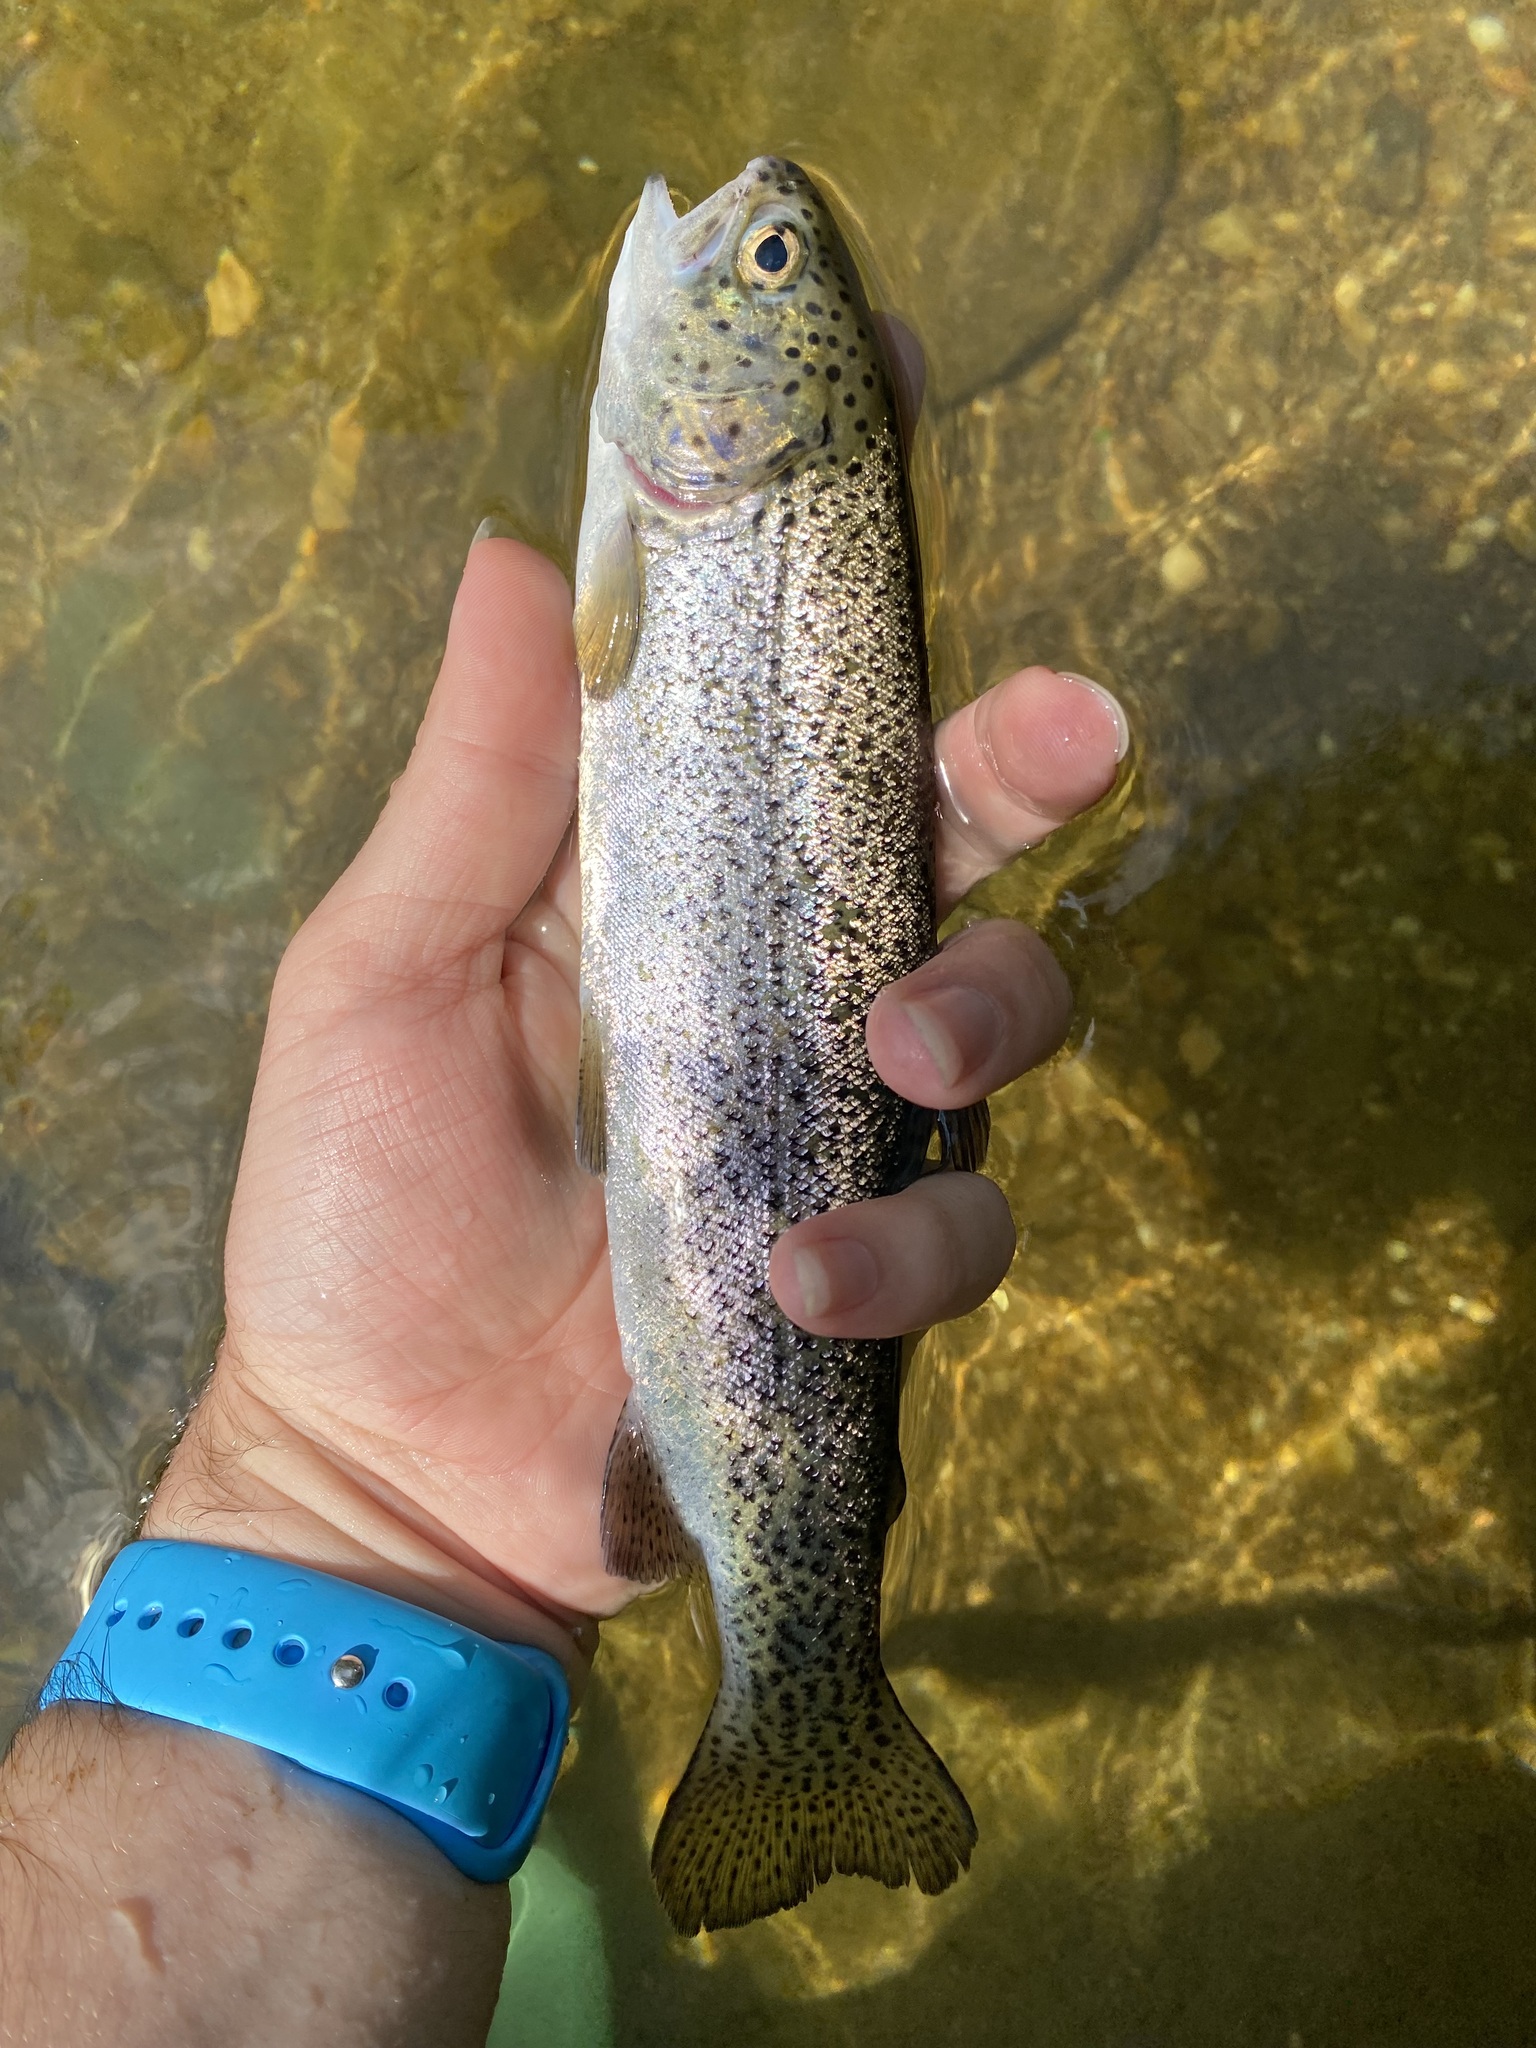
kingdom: Animalia
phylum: Chordata
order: Salmoniformes
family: Salmonidae
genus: Oncorhynchus
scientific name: Oncorhynchus mykiss
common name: Rainbow trout
